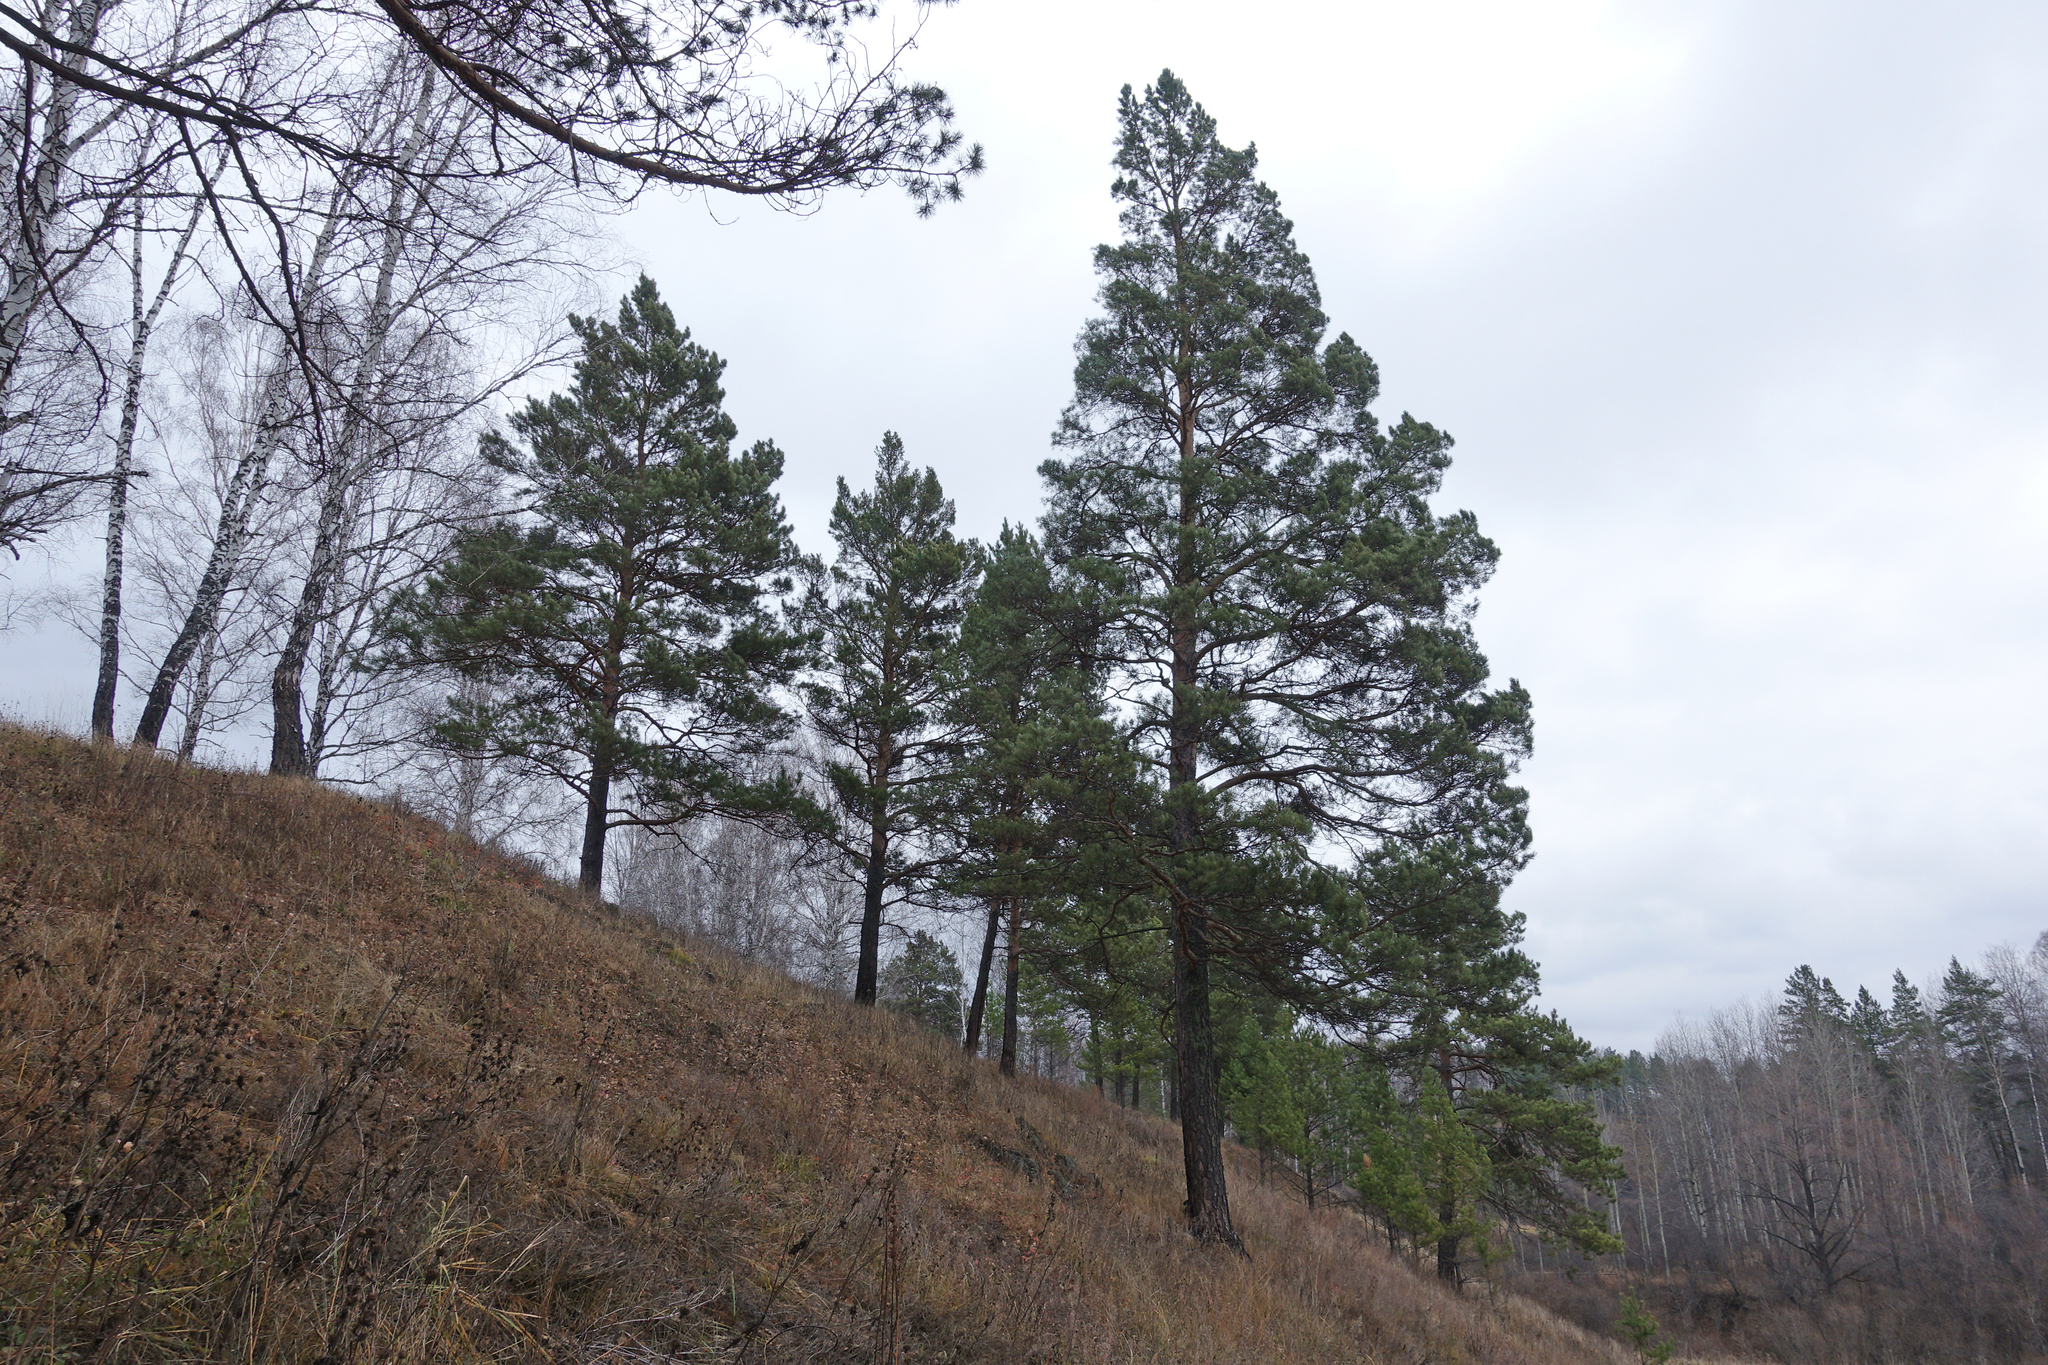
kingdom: Plantae
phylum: Tracheophyta
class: Pinopsida
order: Pinales
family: Pinaceae
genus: Pinus
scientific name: Pinus sylvestris
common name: Scots pine
